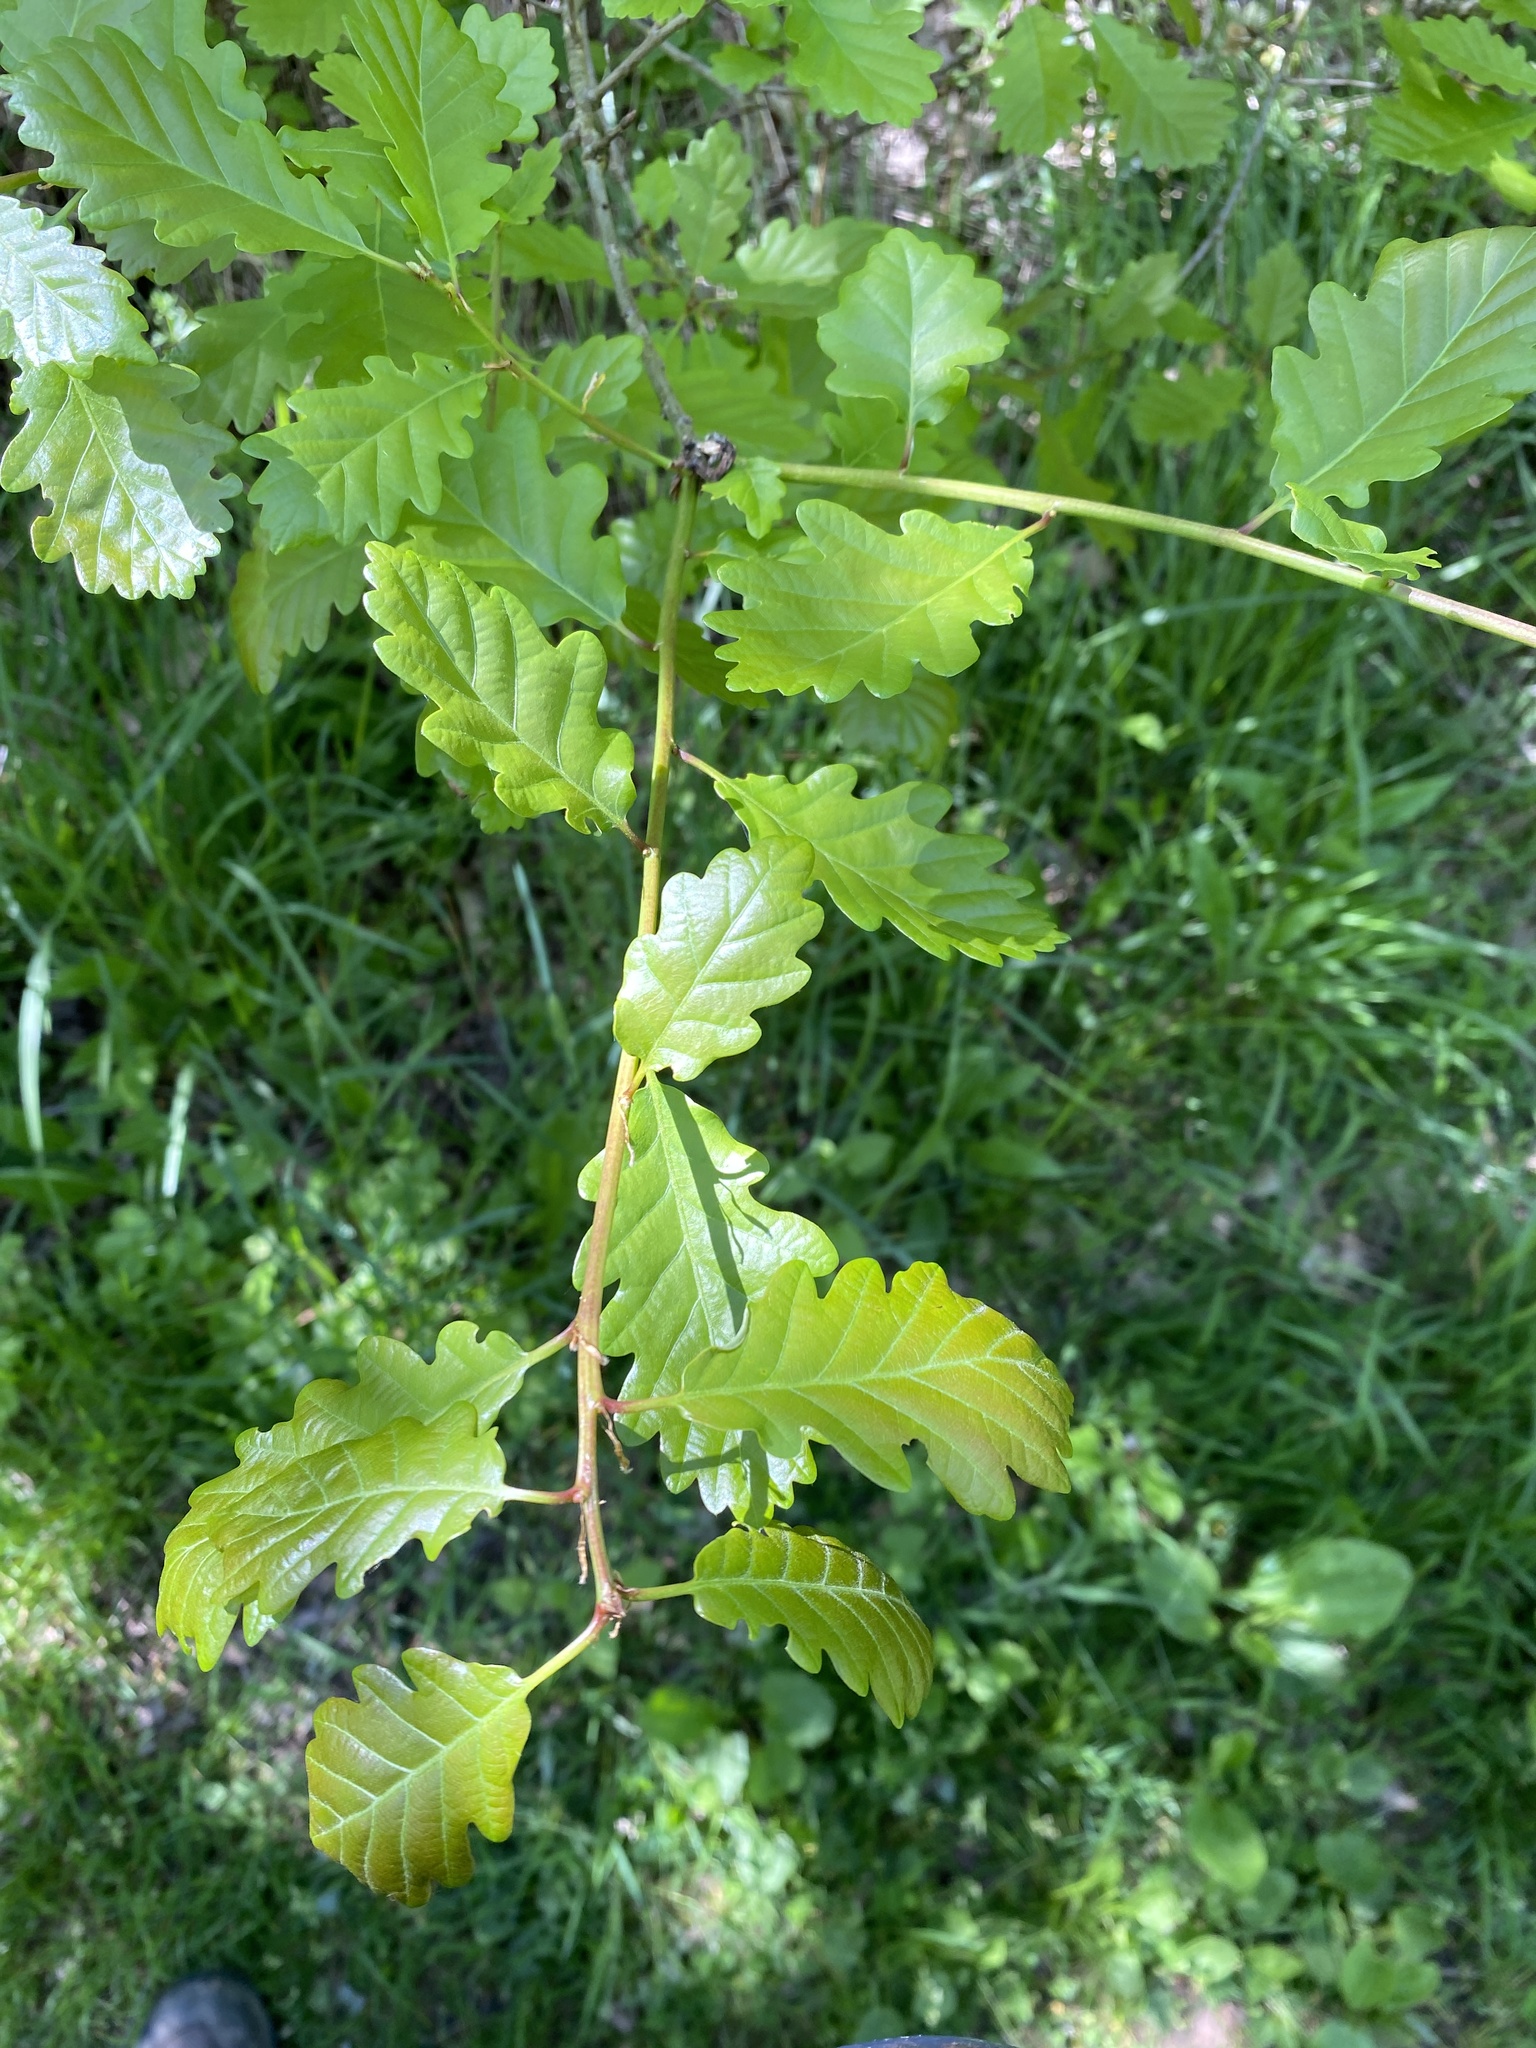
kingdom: Plantae
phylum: Tracheophyta
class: Magnoliopsida
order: Fagales
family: Fagaceae
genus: Quercus
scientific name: Quercus petraea
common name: Sessile oak
